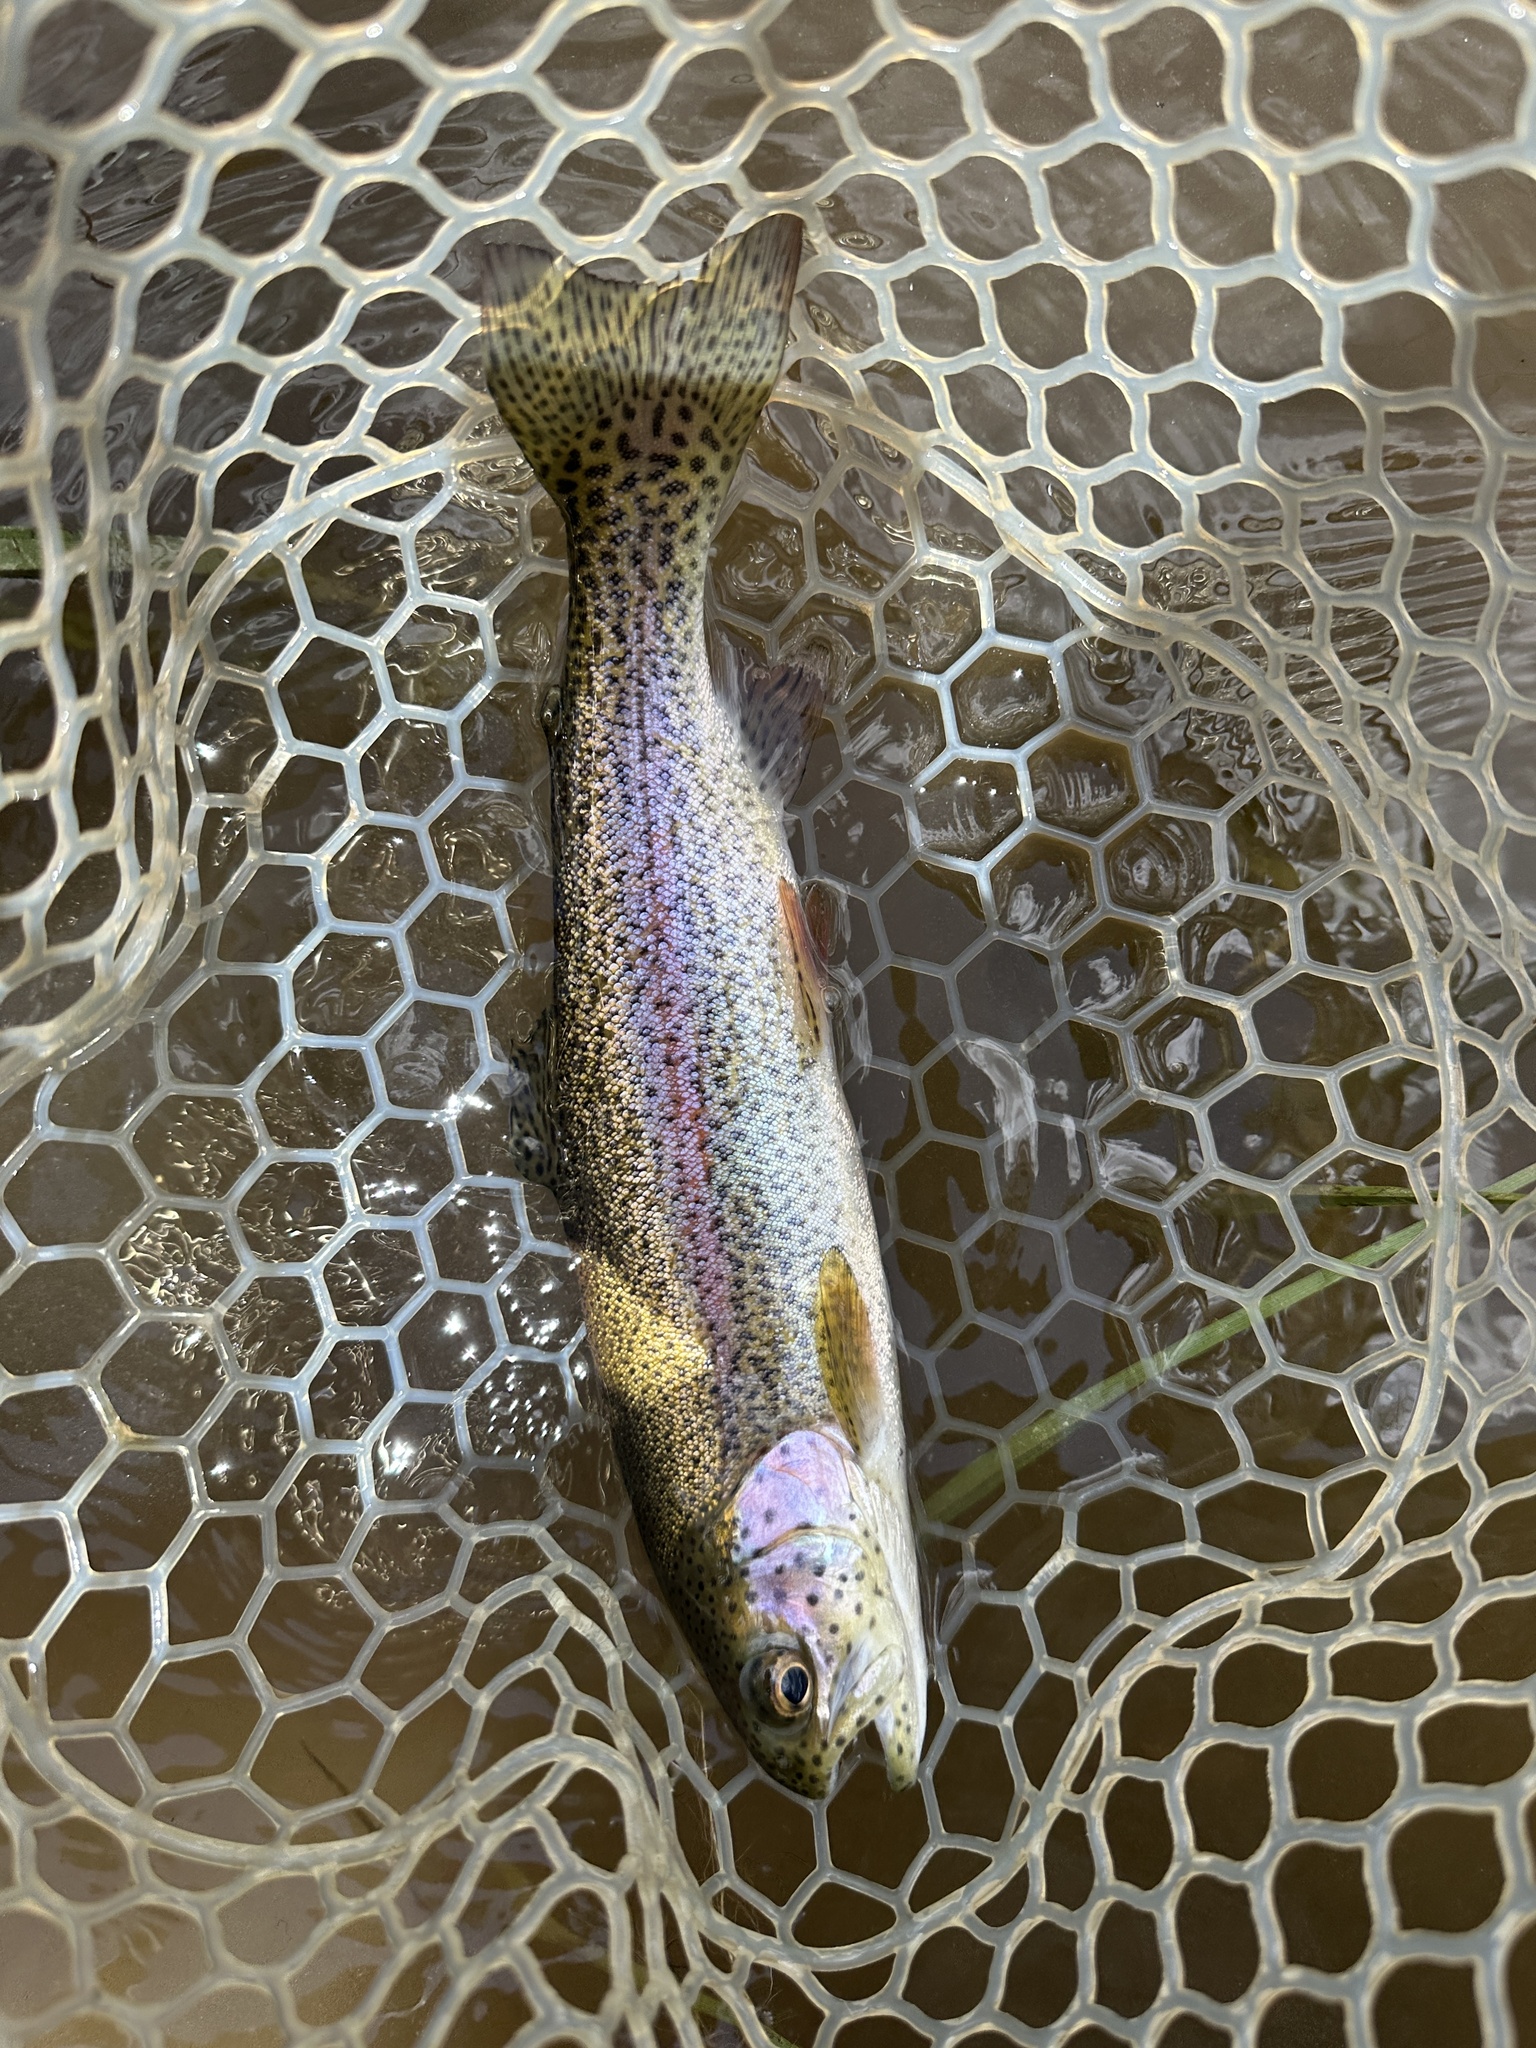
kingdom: Animalia
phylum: Chordata
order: Salmoniformes
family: Salmonidae
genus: Oncorhynchus
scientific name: Oncorhynchus mykiss
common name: Rainbow trout
